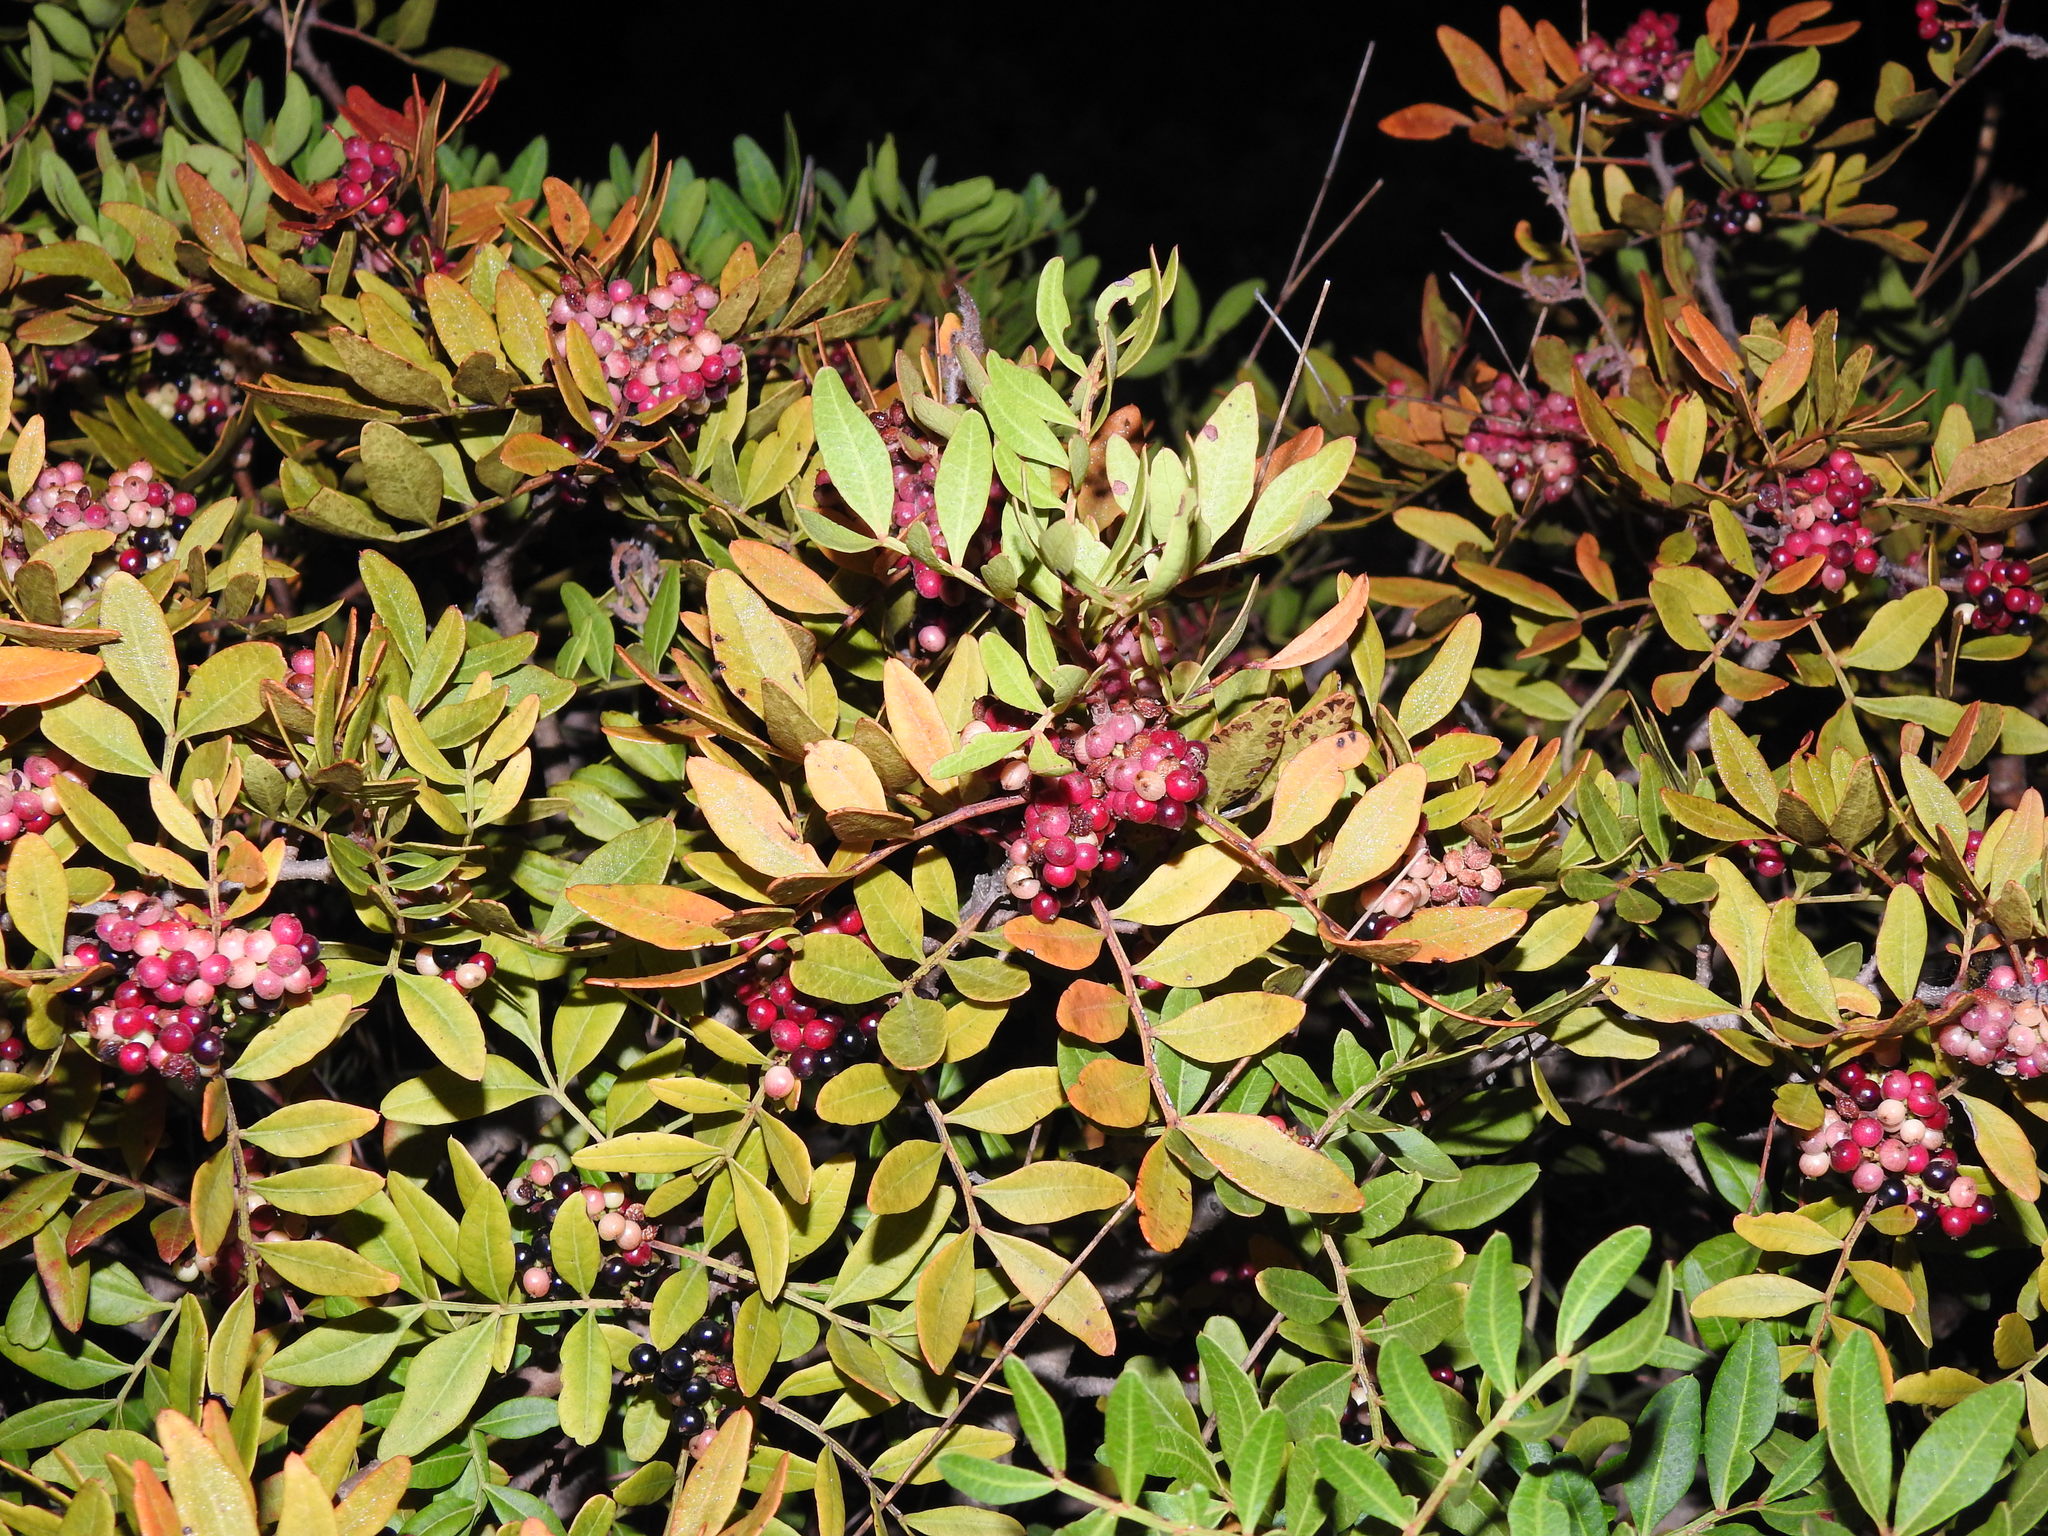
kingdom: Plantae
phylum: Tracheophyta
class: Magnoliopsida
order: Sapindales
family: Anacardiaceae
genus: Pistacia
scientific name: Pistacia lentiscus
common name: Lentisk
